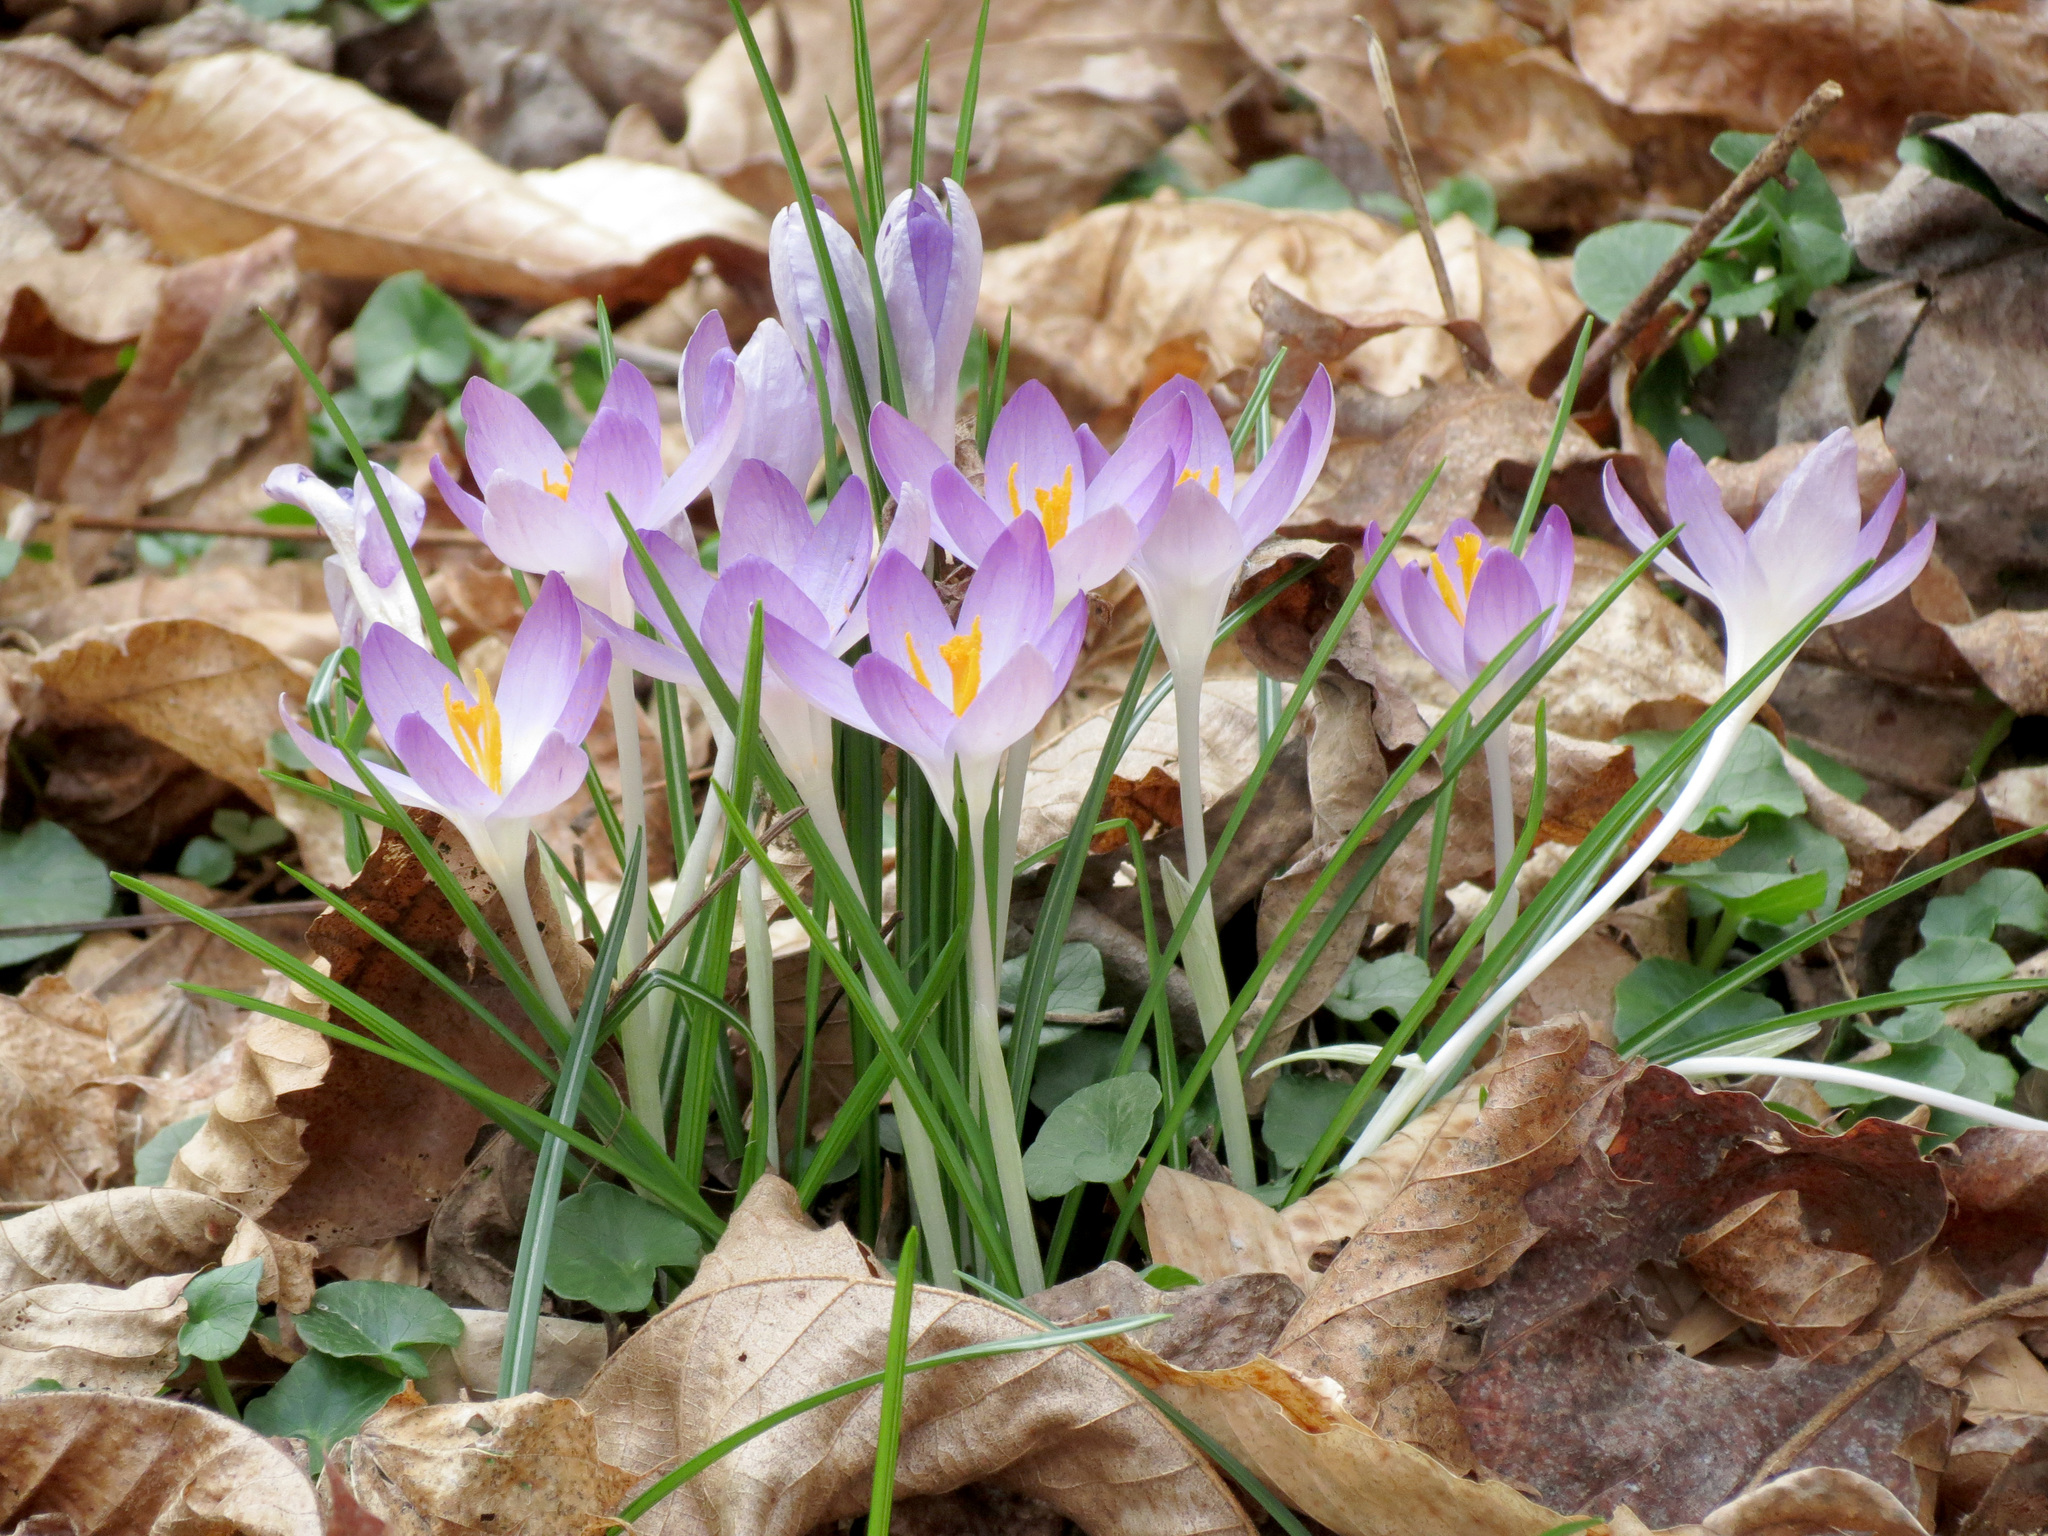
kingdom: Plantae
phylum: Tracheophyta
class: Liliopsida
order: Asparagales
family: Iridaceae
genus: Crocus
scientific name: Crocus tommasinianus
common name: Early crocus
